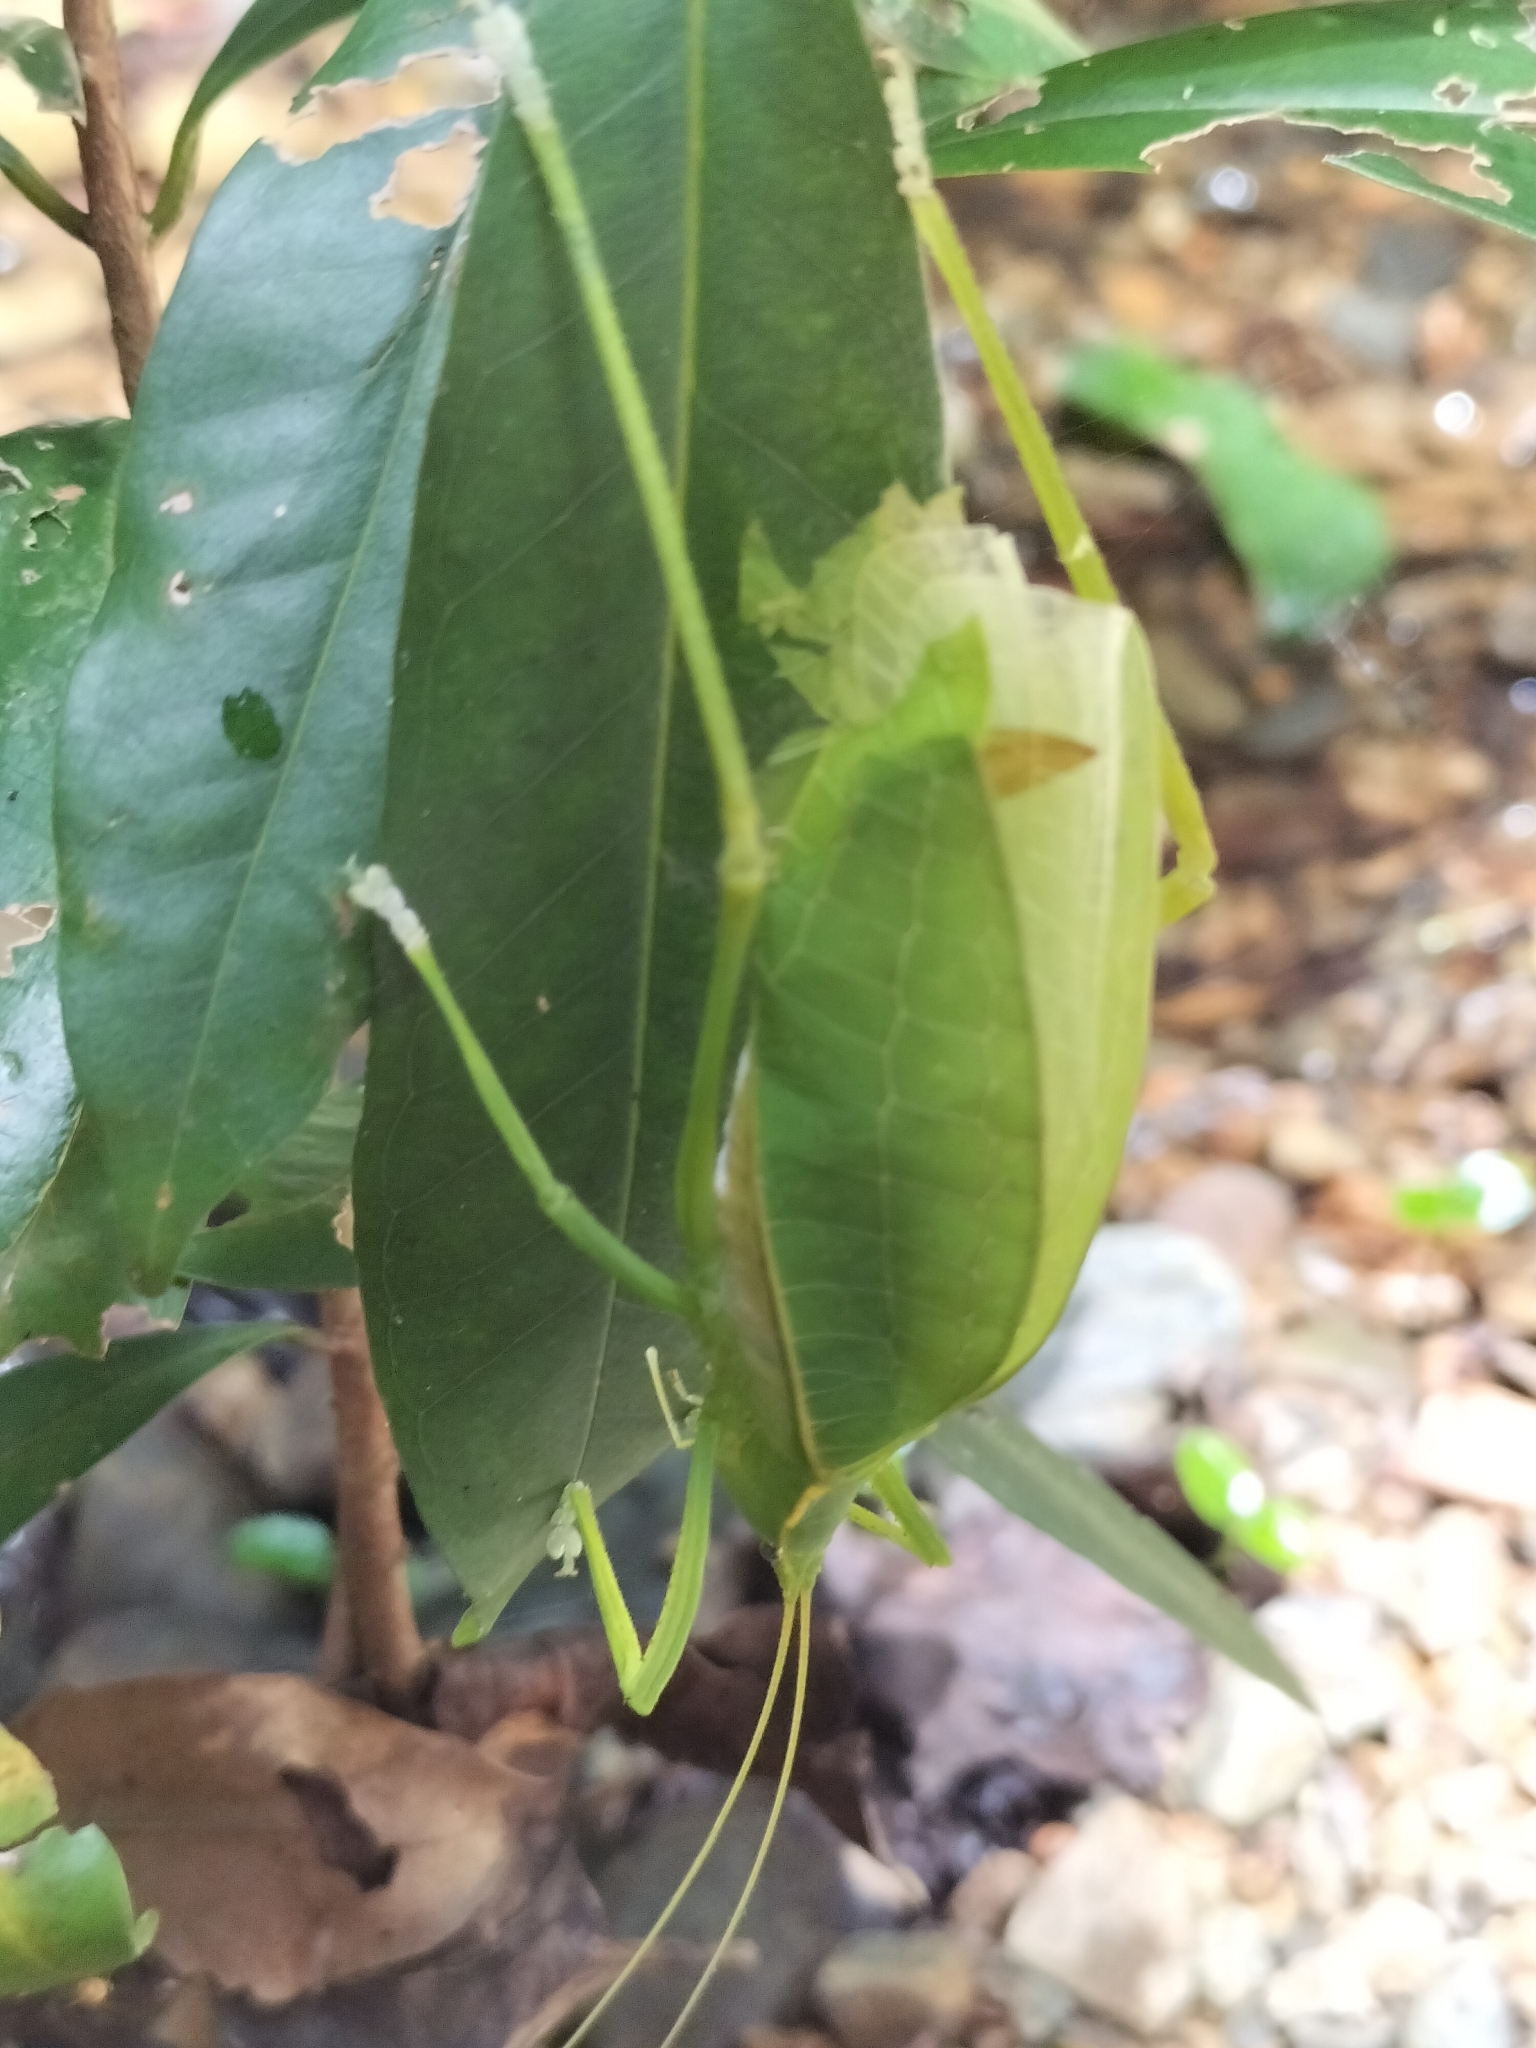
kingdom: Animalia
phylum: Arthropoda
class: Insecta
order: Orthoptera
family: Tettigoniidae
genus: Mastighaphoides
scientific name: Mastighaphoides tuberculatus
